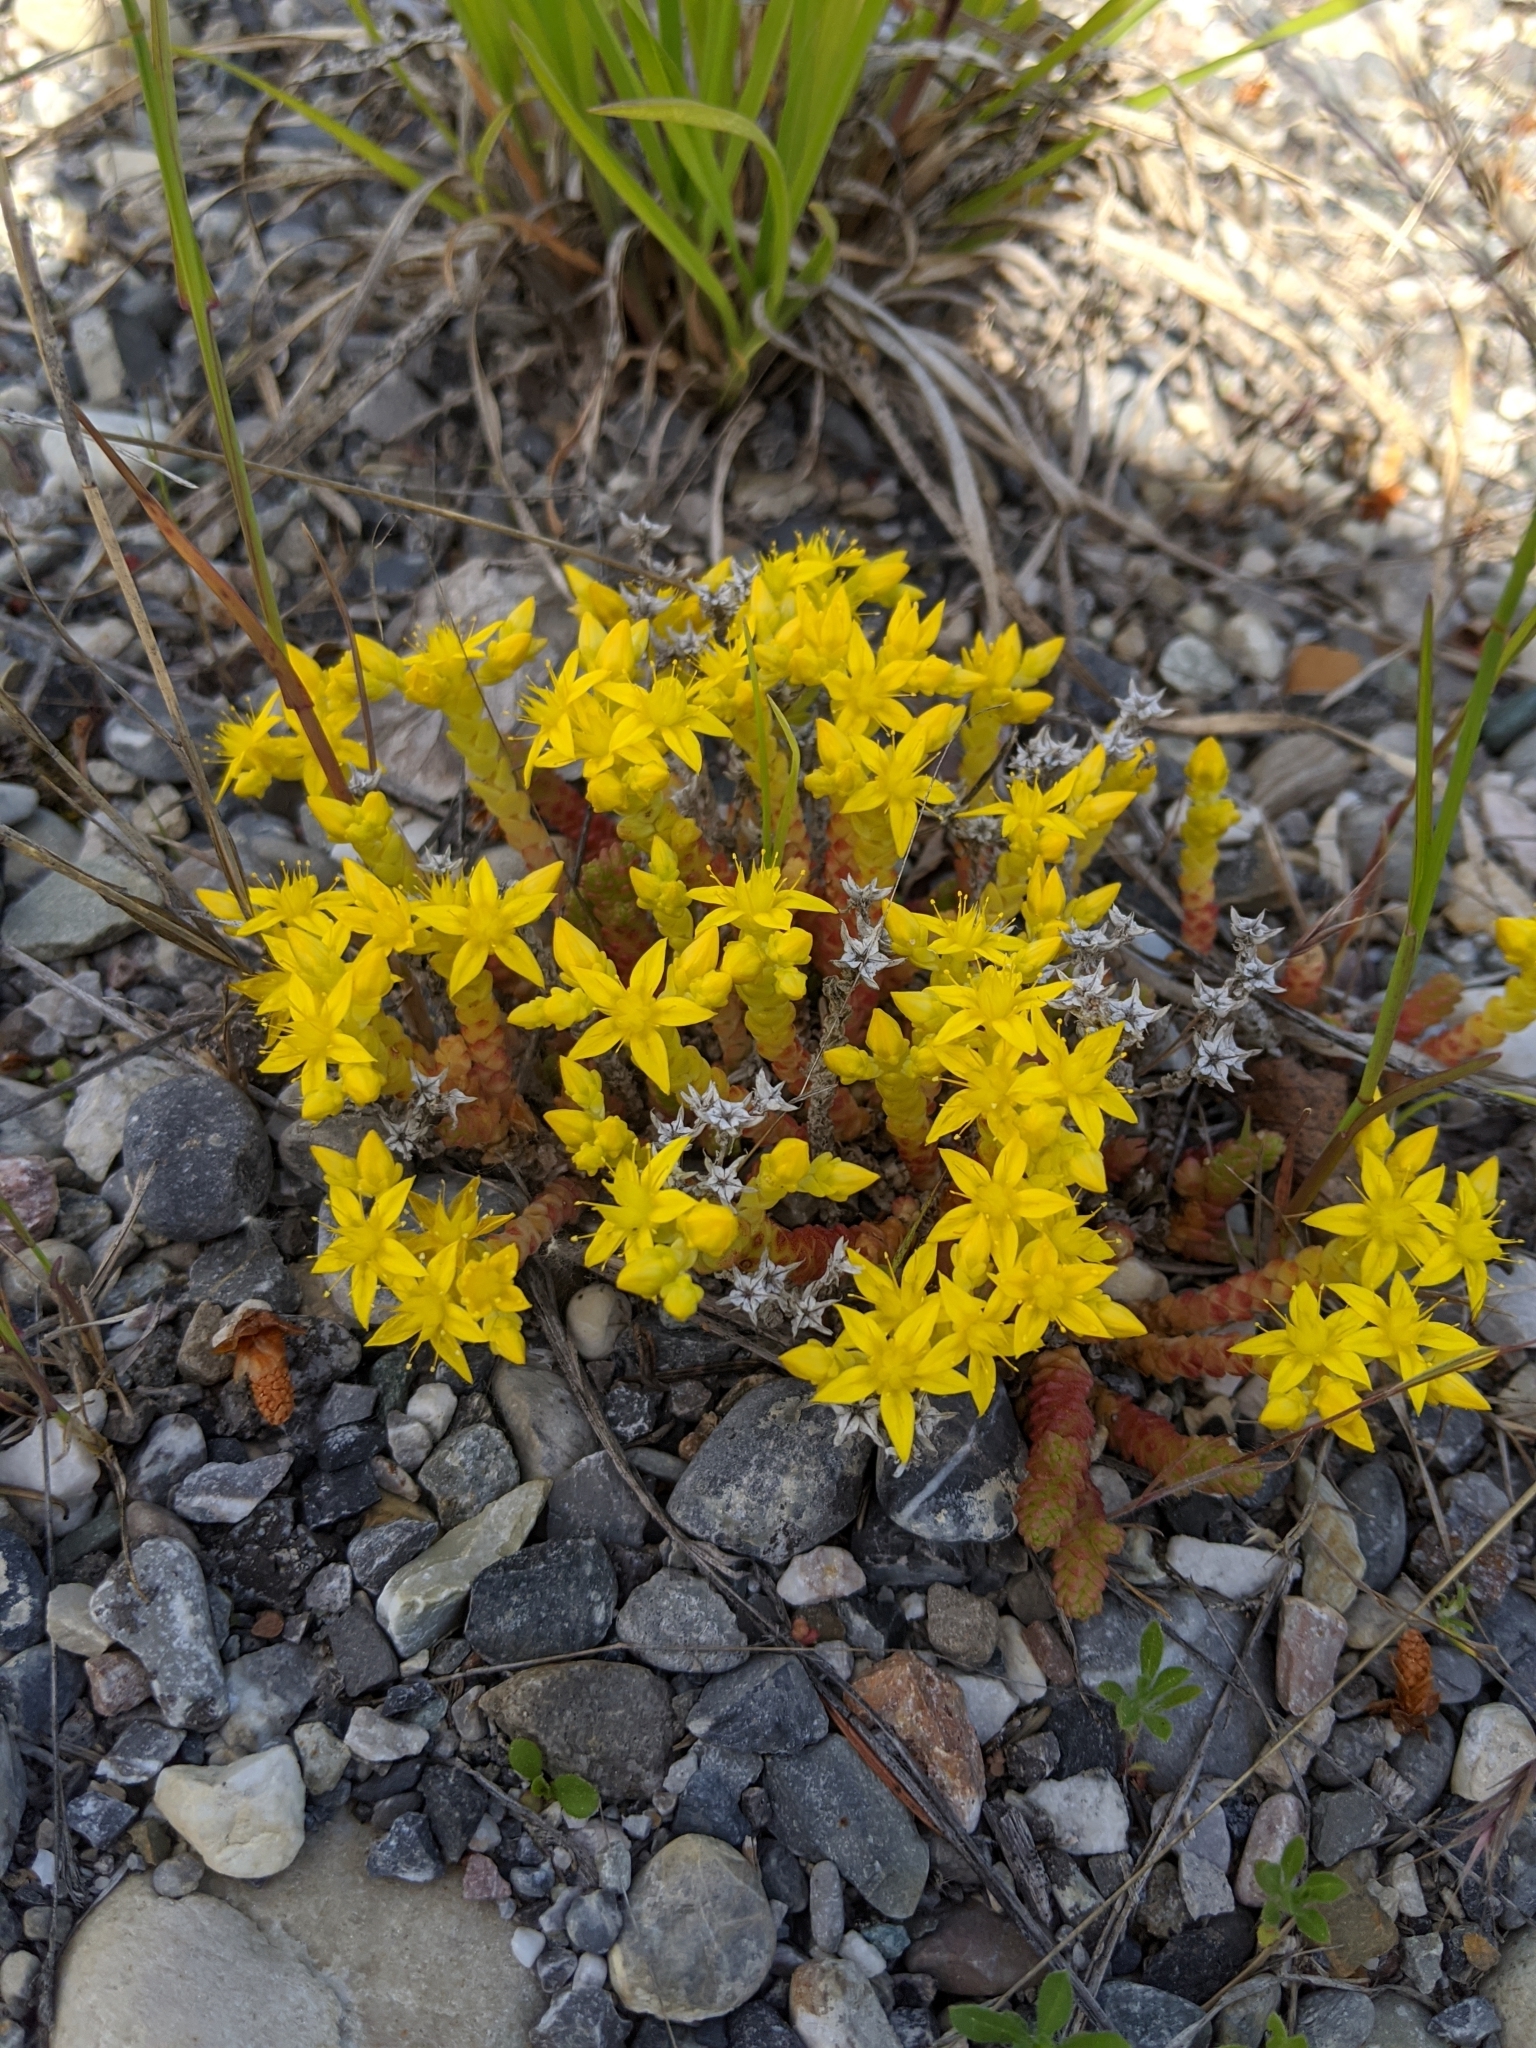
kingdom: Plantae
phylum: Tracheophyta
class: Magnoliopsida
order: Saxifragales
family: Crassulaceae
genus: Sedum
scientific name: Sedum acre
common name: Biting stonecrop
